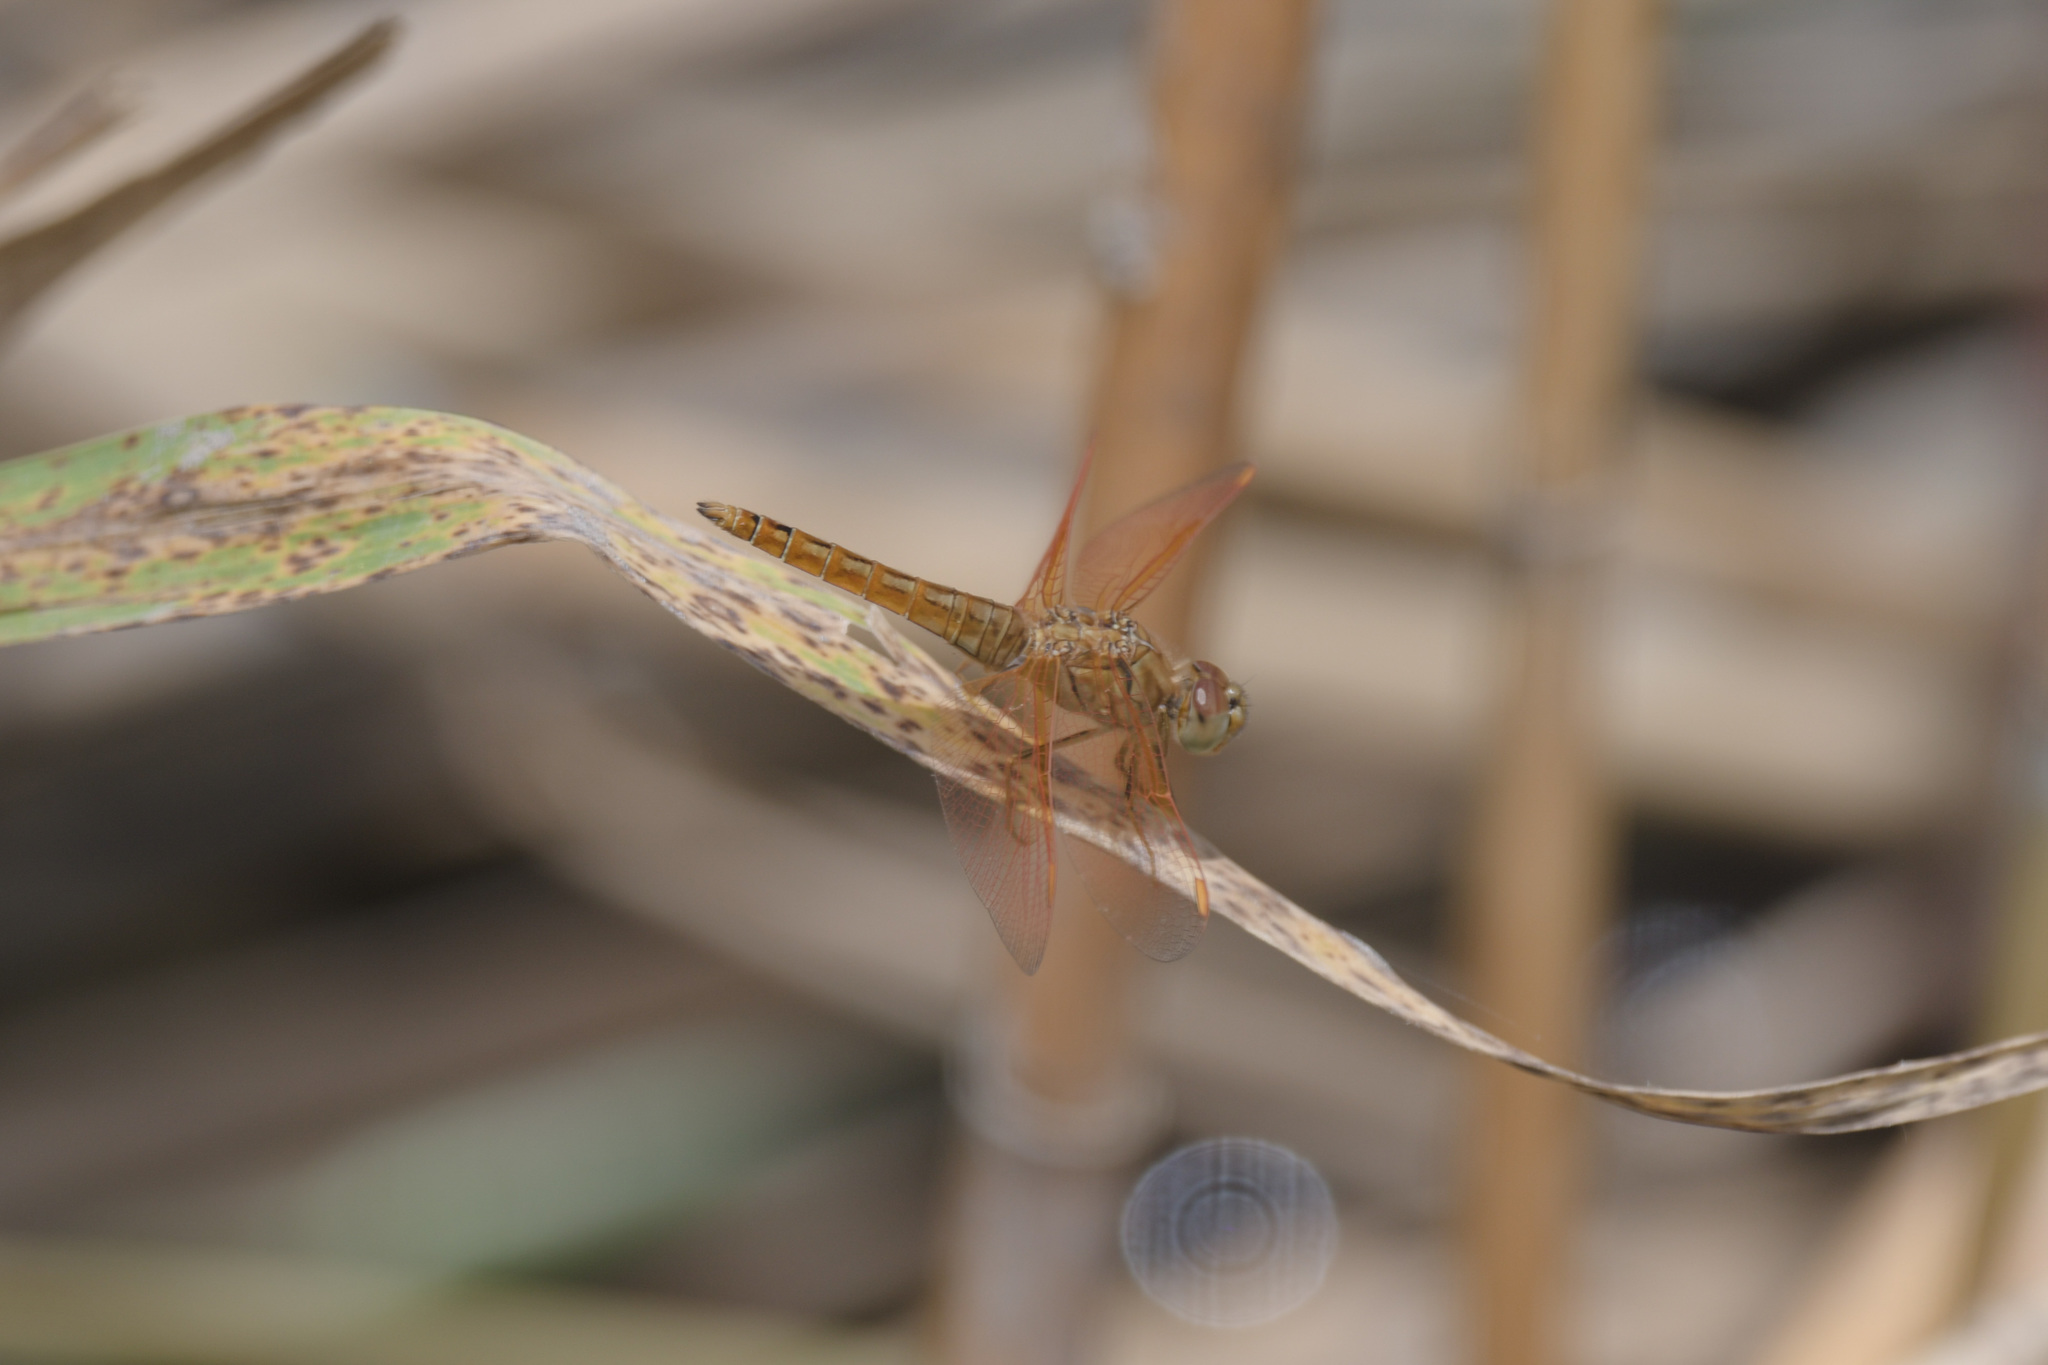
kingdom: Animalia
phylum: Arthropoda
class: Insecta
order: Odonata
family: Libellulidae
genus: Brachythemis
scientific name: Brachythemis contaminata
